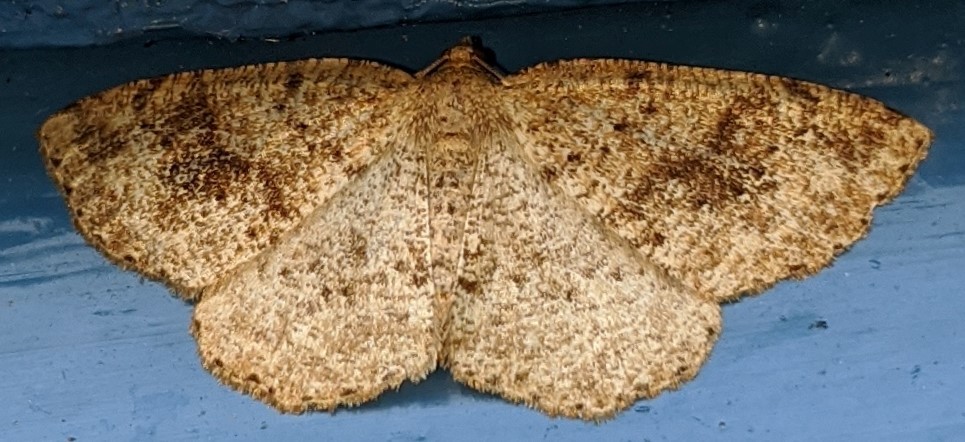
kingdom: Animalia
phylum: Arthropoda
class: Insecta
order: Lepidoptera
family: Geometridae
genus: Homochlodes
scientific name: Homochlodes fritillaria
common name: Pale homochlodes
